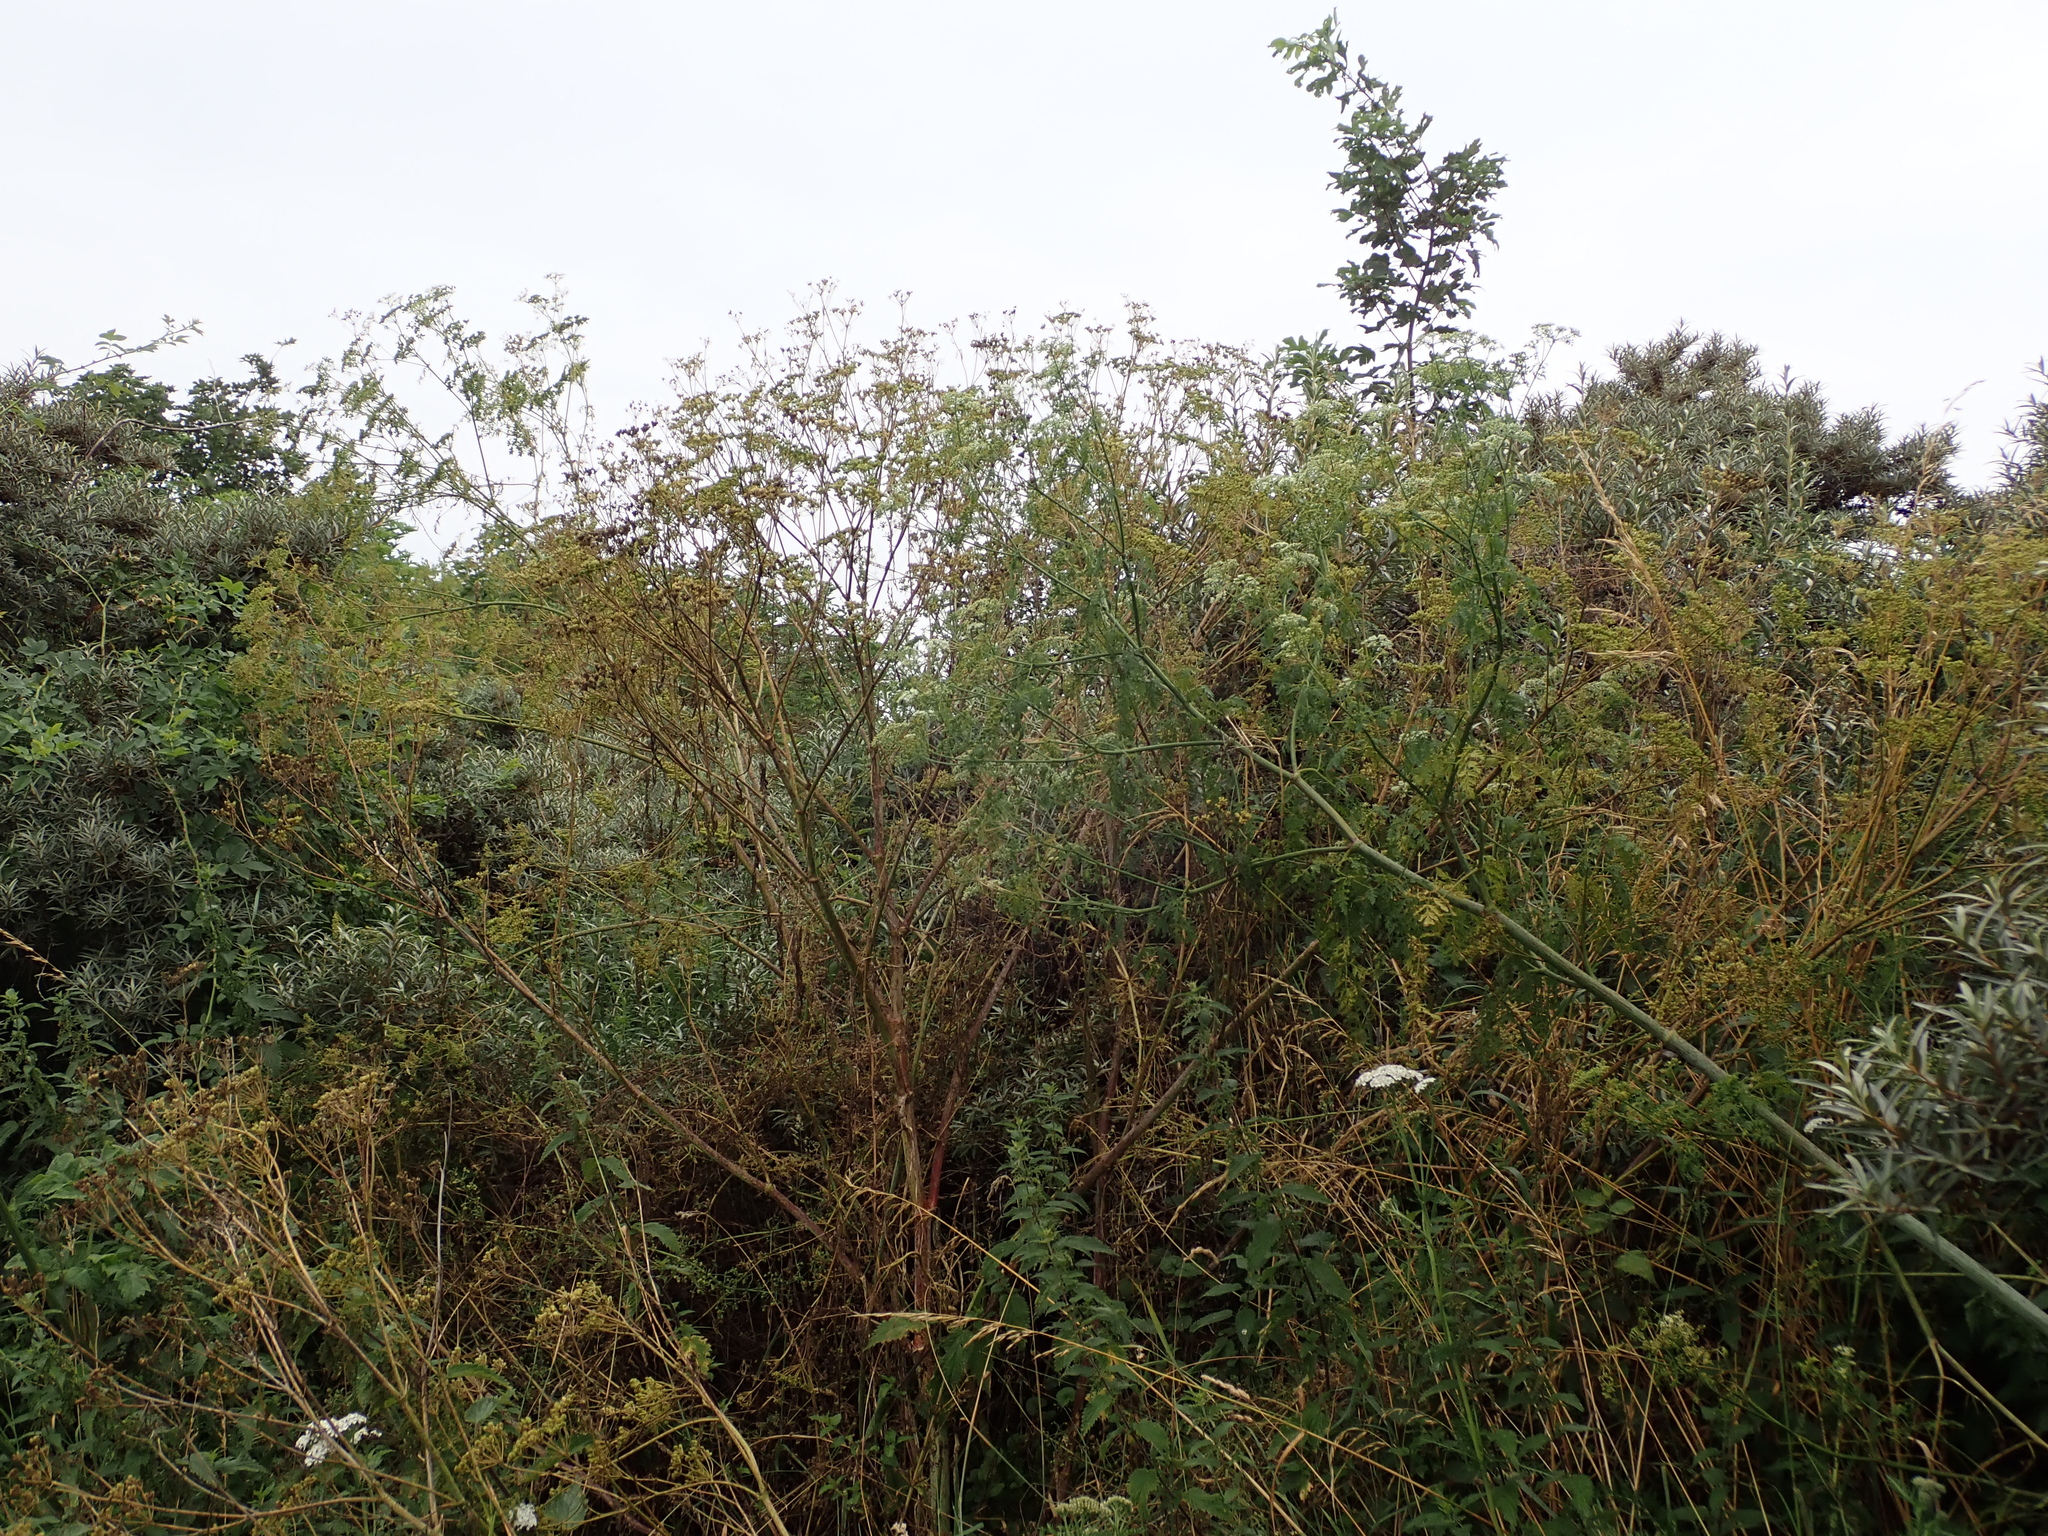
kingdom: Plantae
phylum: Tracheophyta
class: Magnoliopsida
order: Apiales
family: Apiaceae
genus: Conium
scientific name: Conium maculatum
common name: Hemlock
